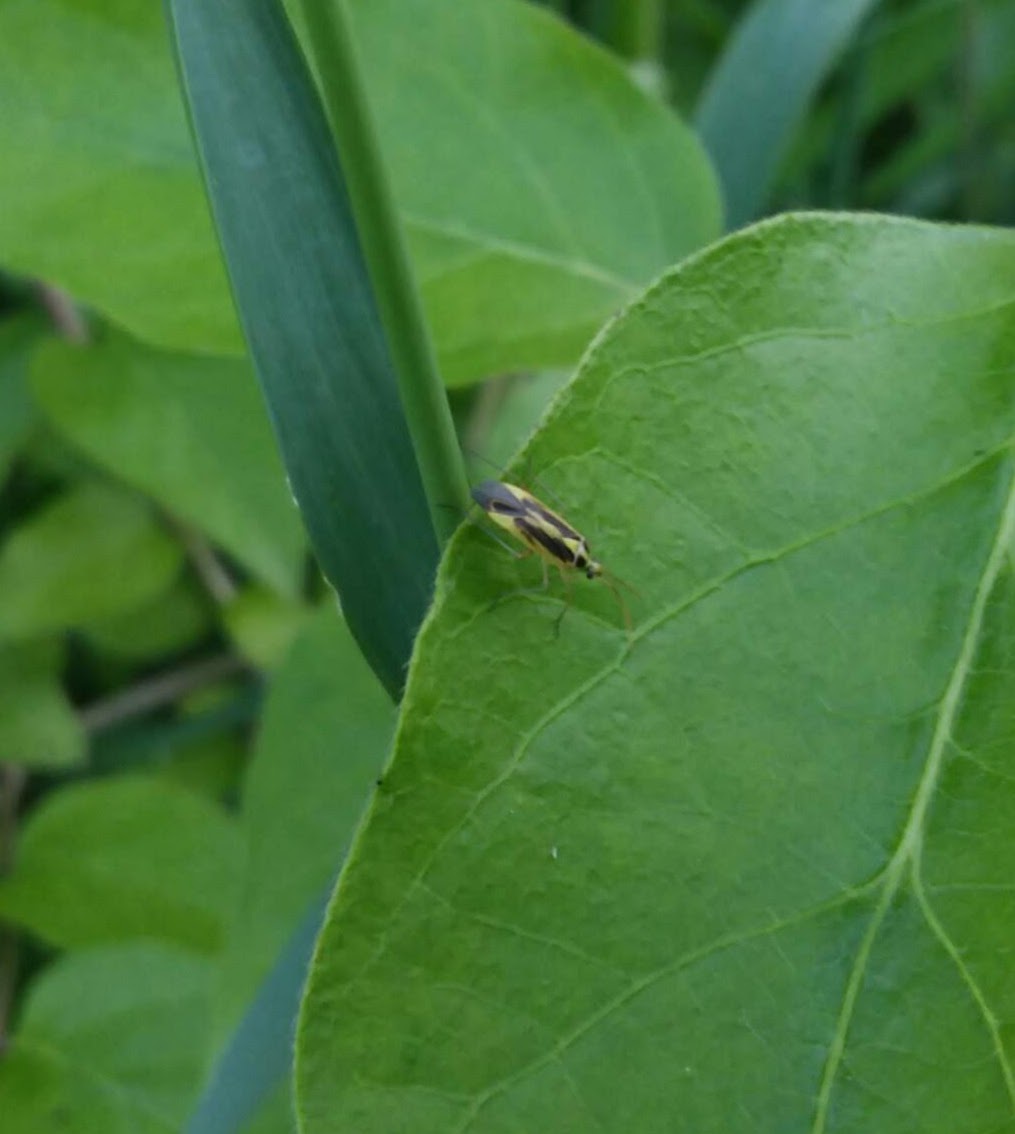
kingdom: Animalia
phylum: Arthropoda
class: Insecta
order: Hemiptera
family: Miridae
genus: Stenotus
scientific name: Stenotus binotatus
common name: Plant bug
